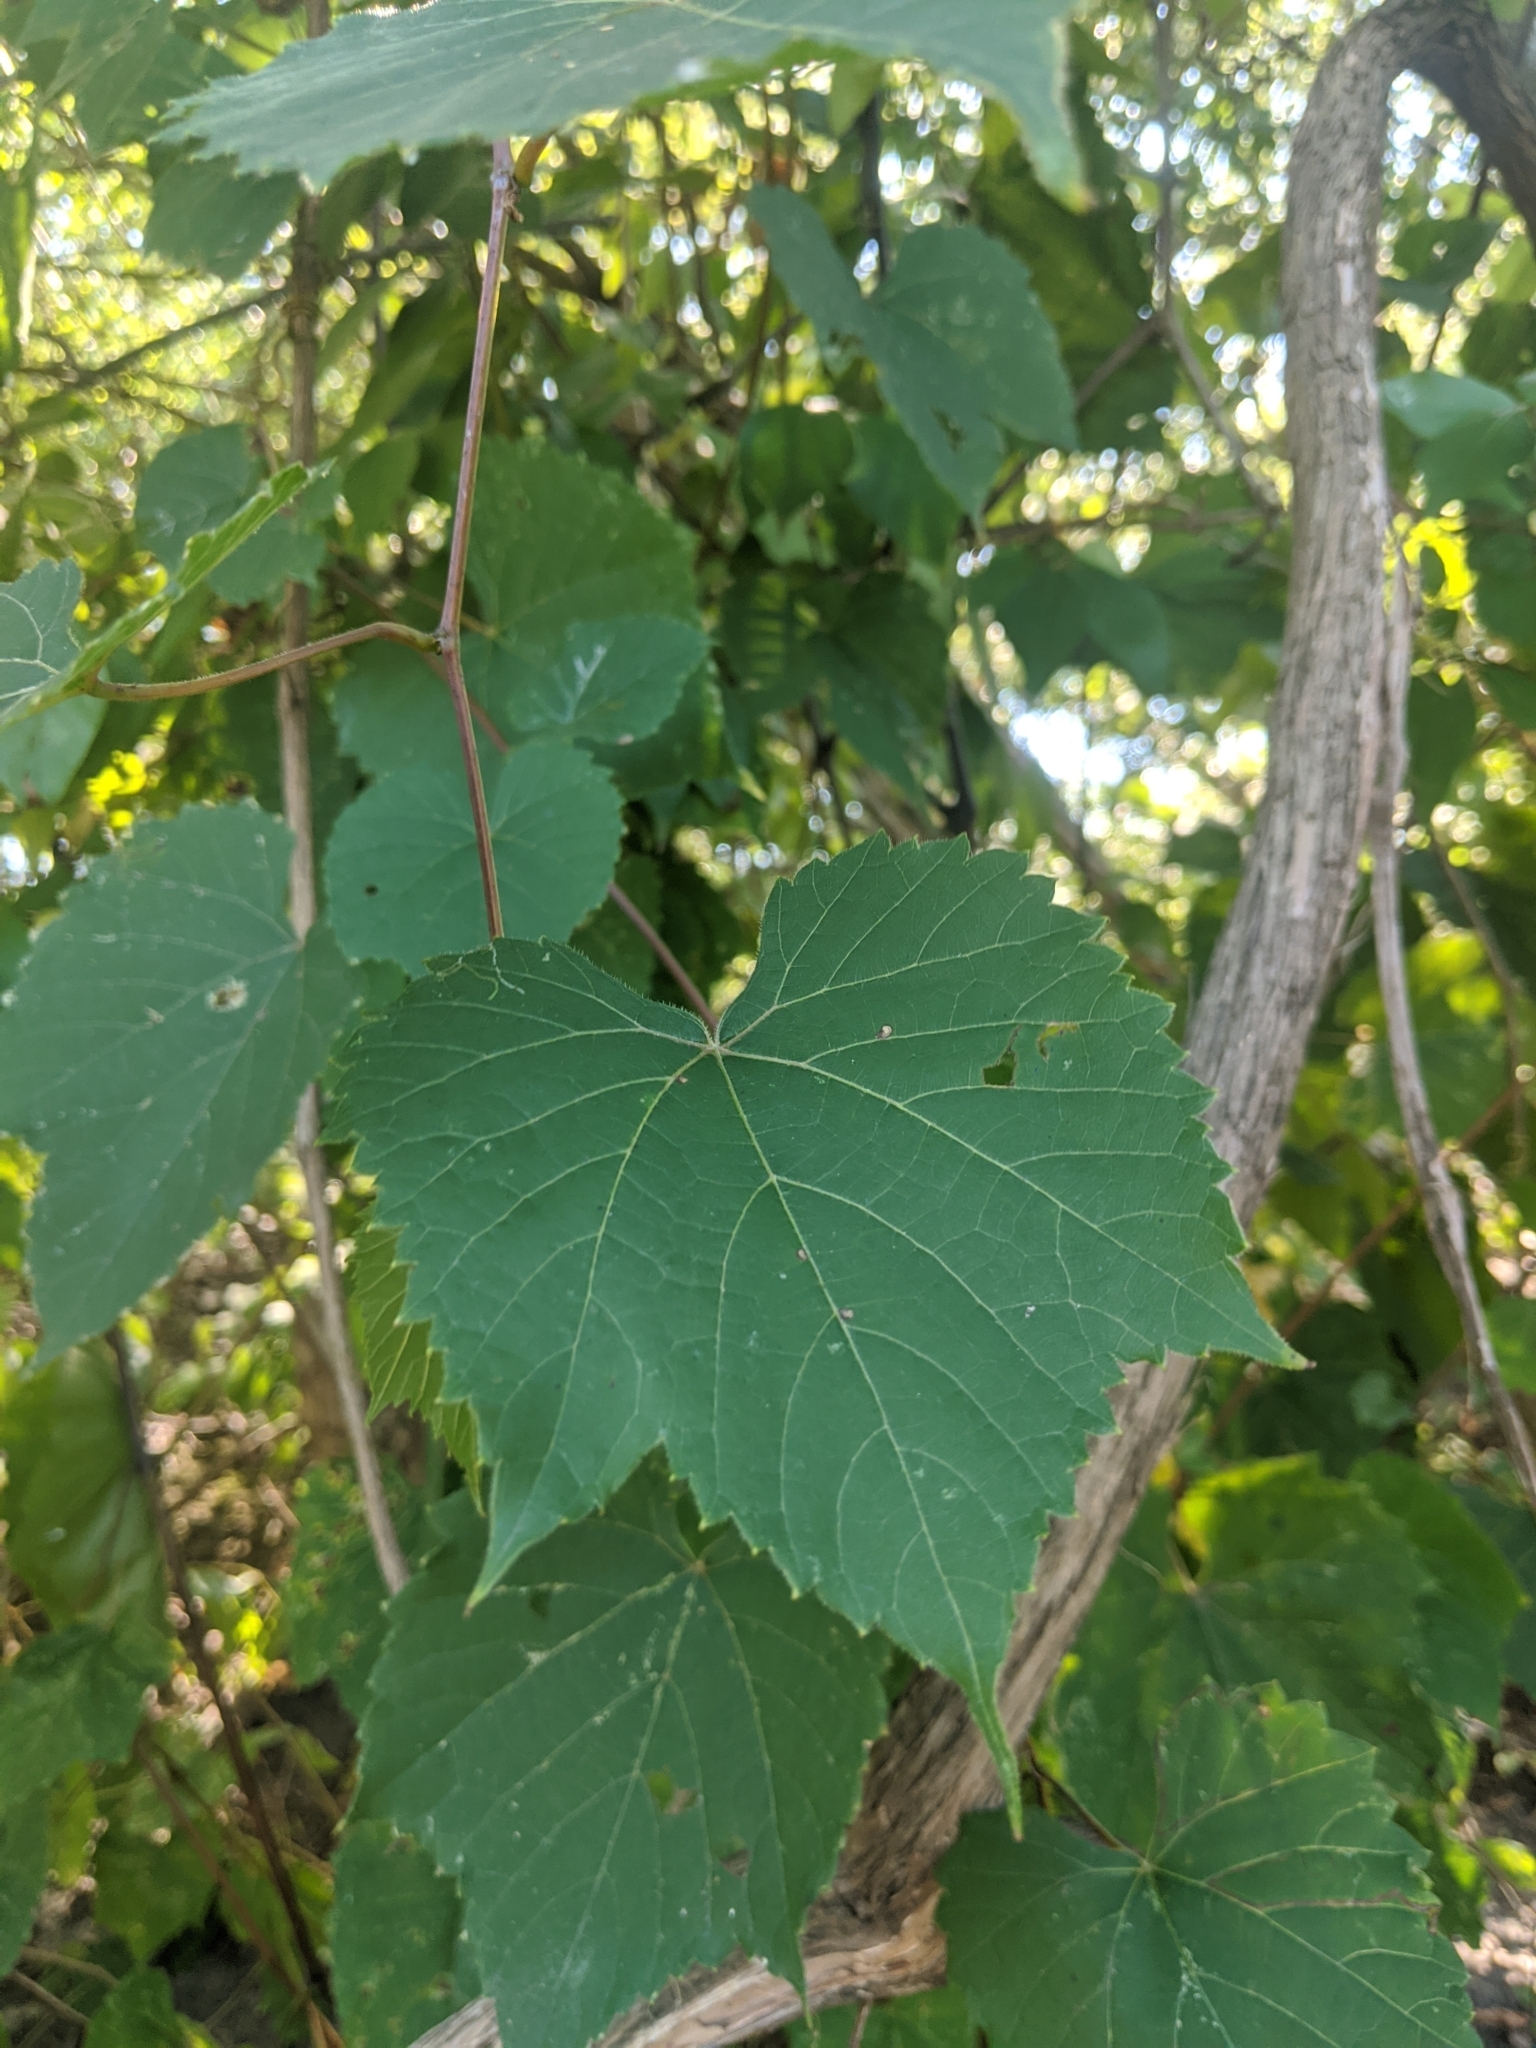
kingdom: Plantae
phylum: Tracheophyta
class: Magnoliopsida
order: Vitales
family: Vitaceae
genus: Vitis
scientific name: Vitis riparia
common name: Frost grape
